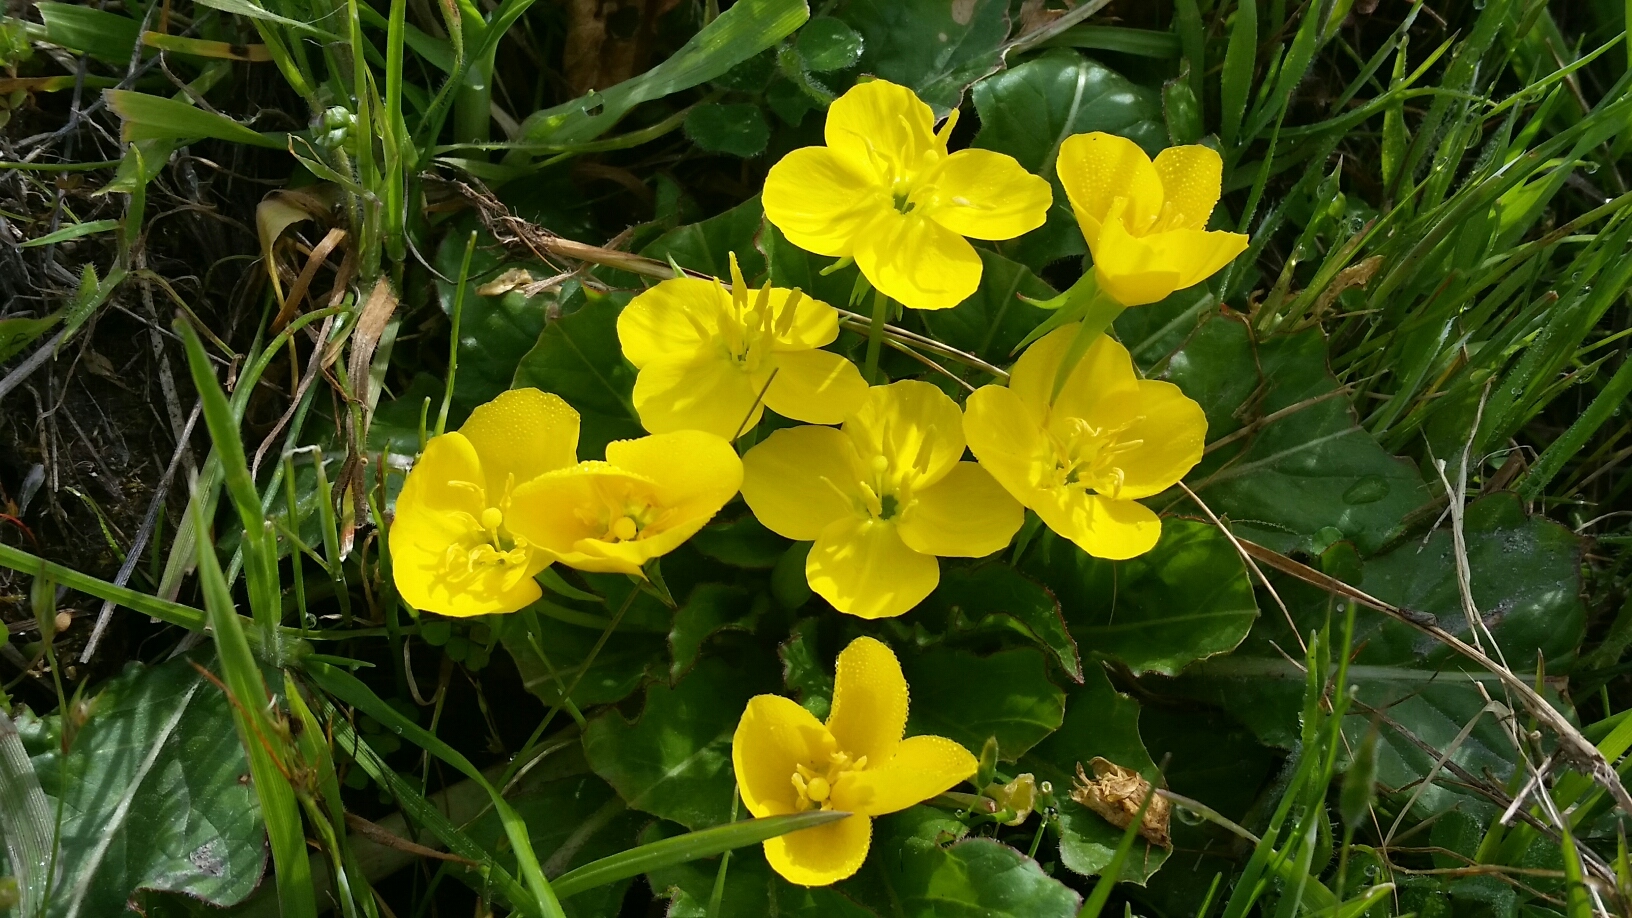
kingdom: Plantae
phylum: Tracheophyta
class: Magnoliopsida
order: Myrtales
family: Onagraceae
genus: Taraxia
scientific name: Taraxia ovata
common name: Goldeneggs
